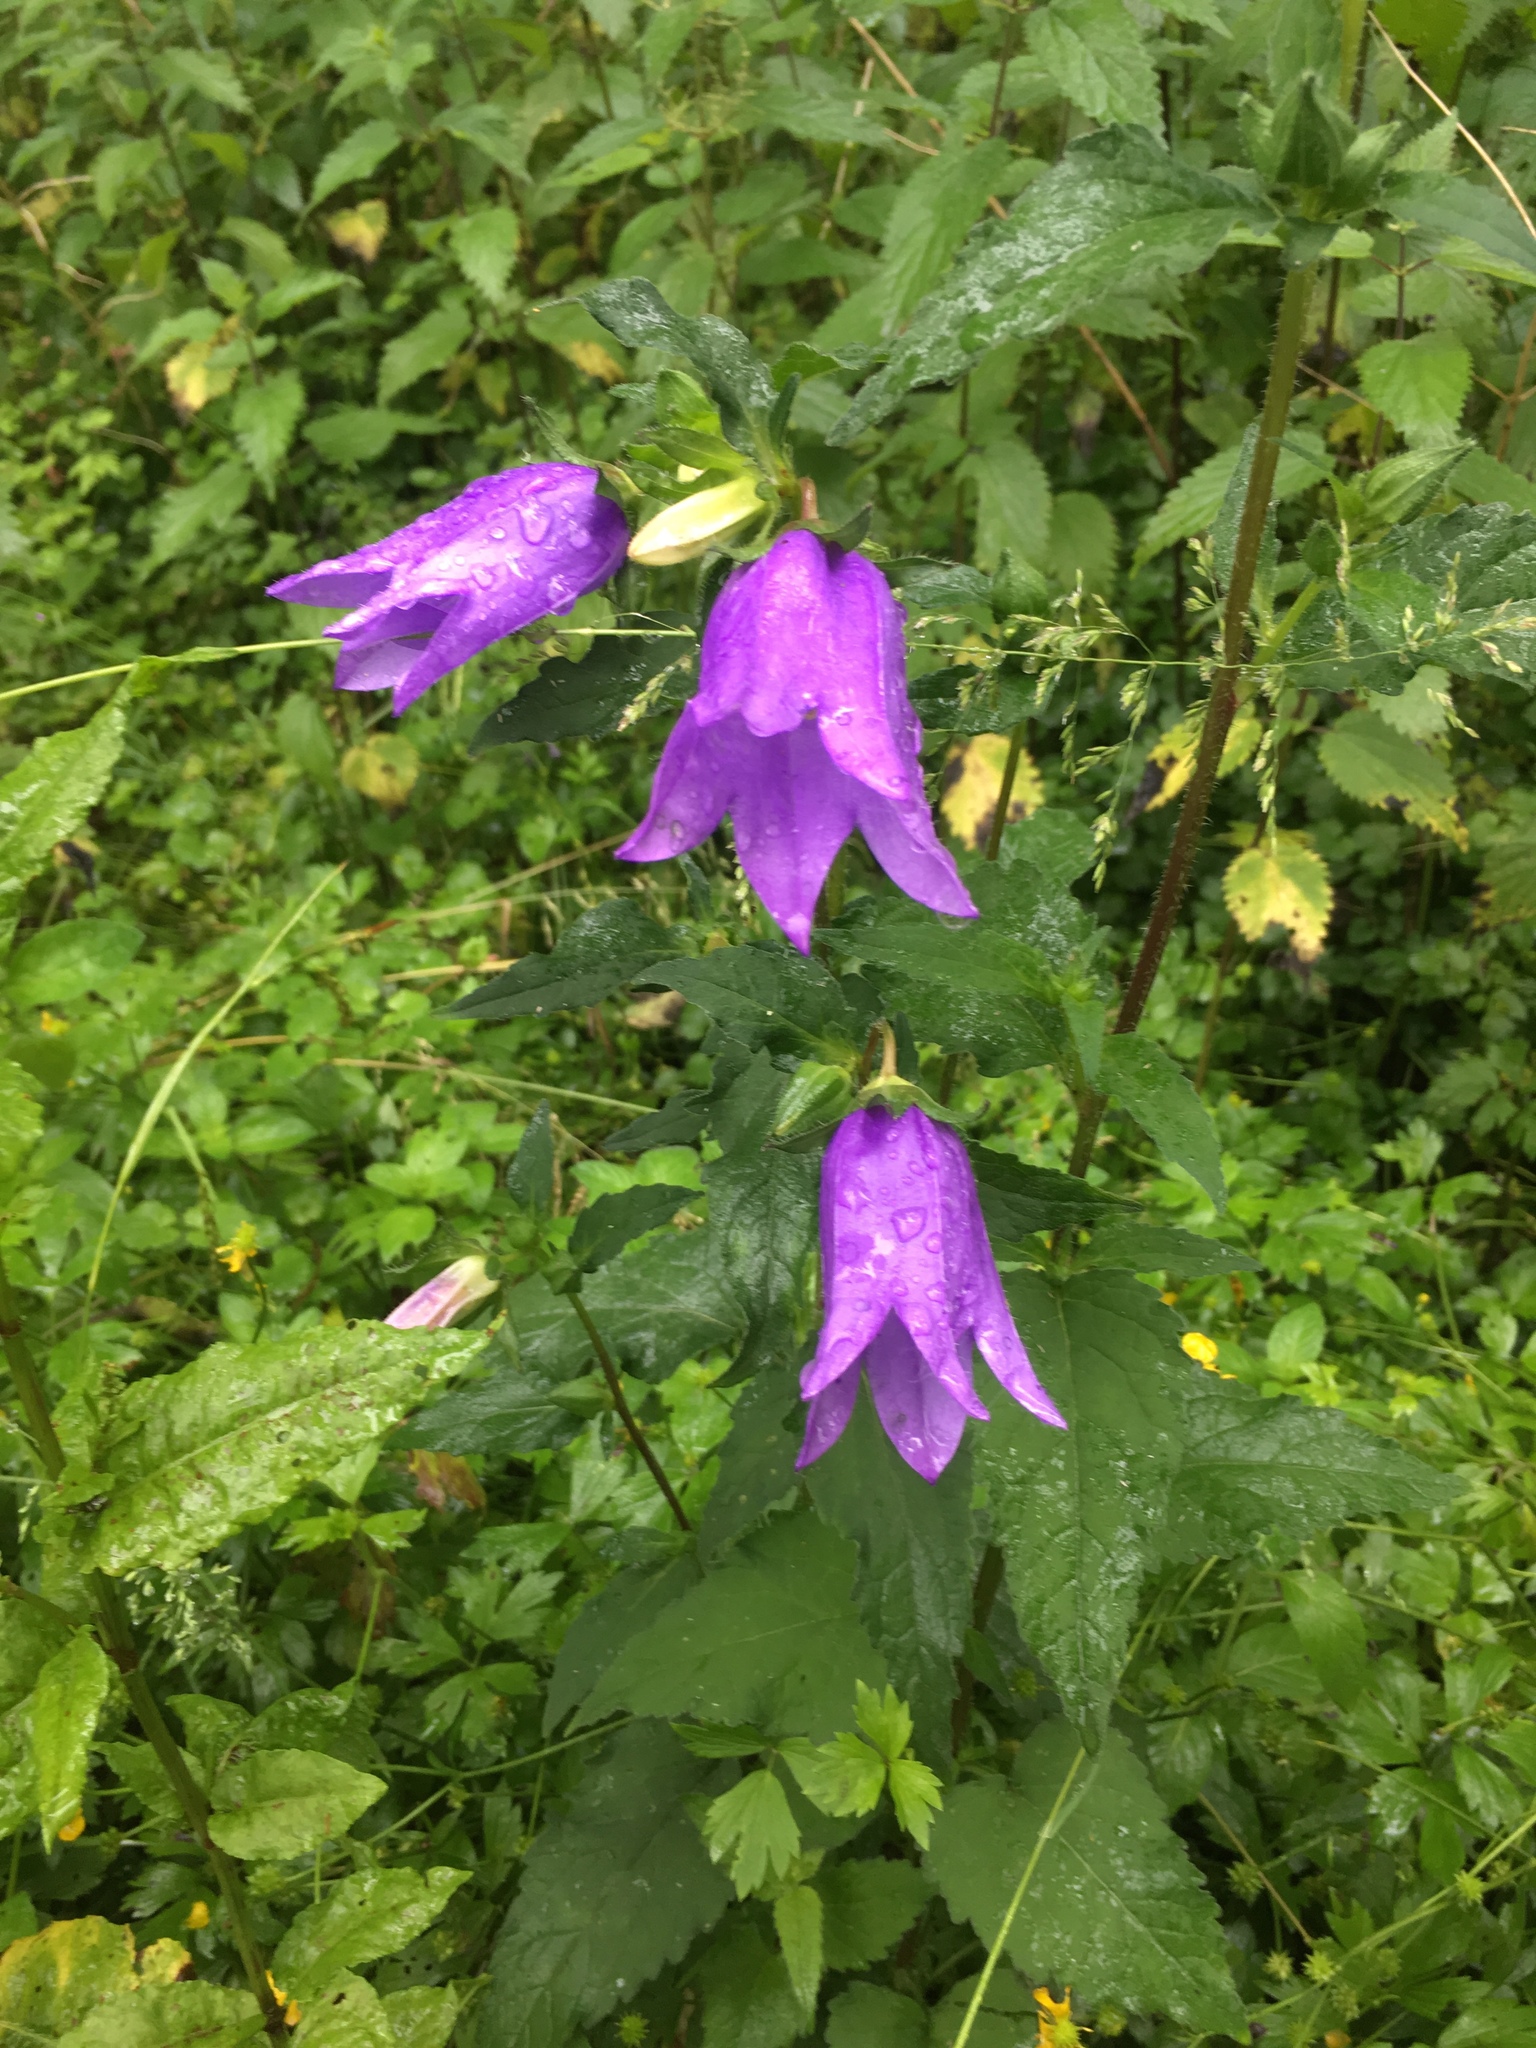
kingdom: Plantae
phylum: Tracheophyta
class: Magnoliopsida
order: Asterales
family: Campanulaceae
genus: Campanula
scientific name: Campanula trachelium
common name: Nettle-leaved bellflower
